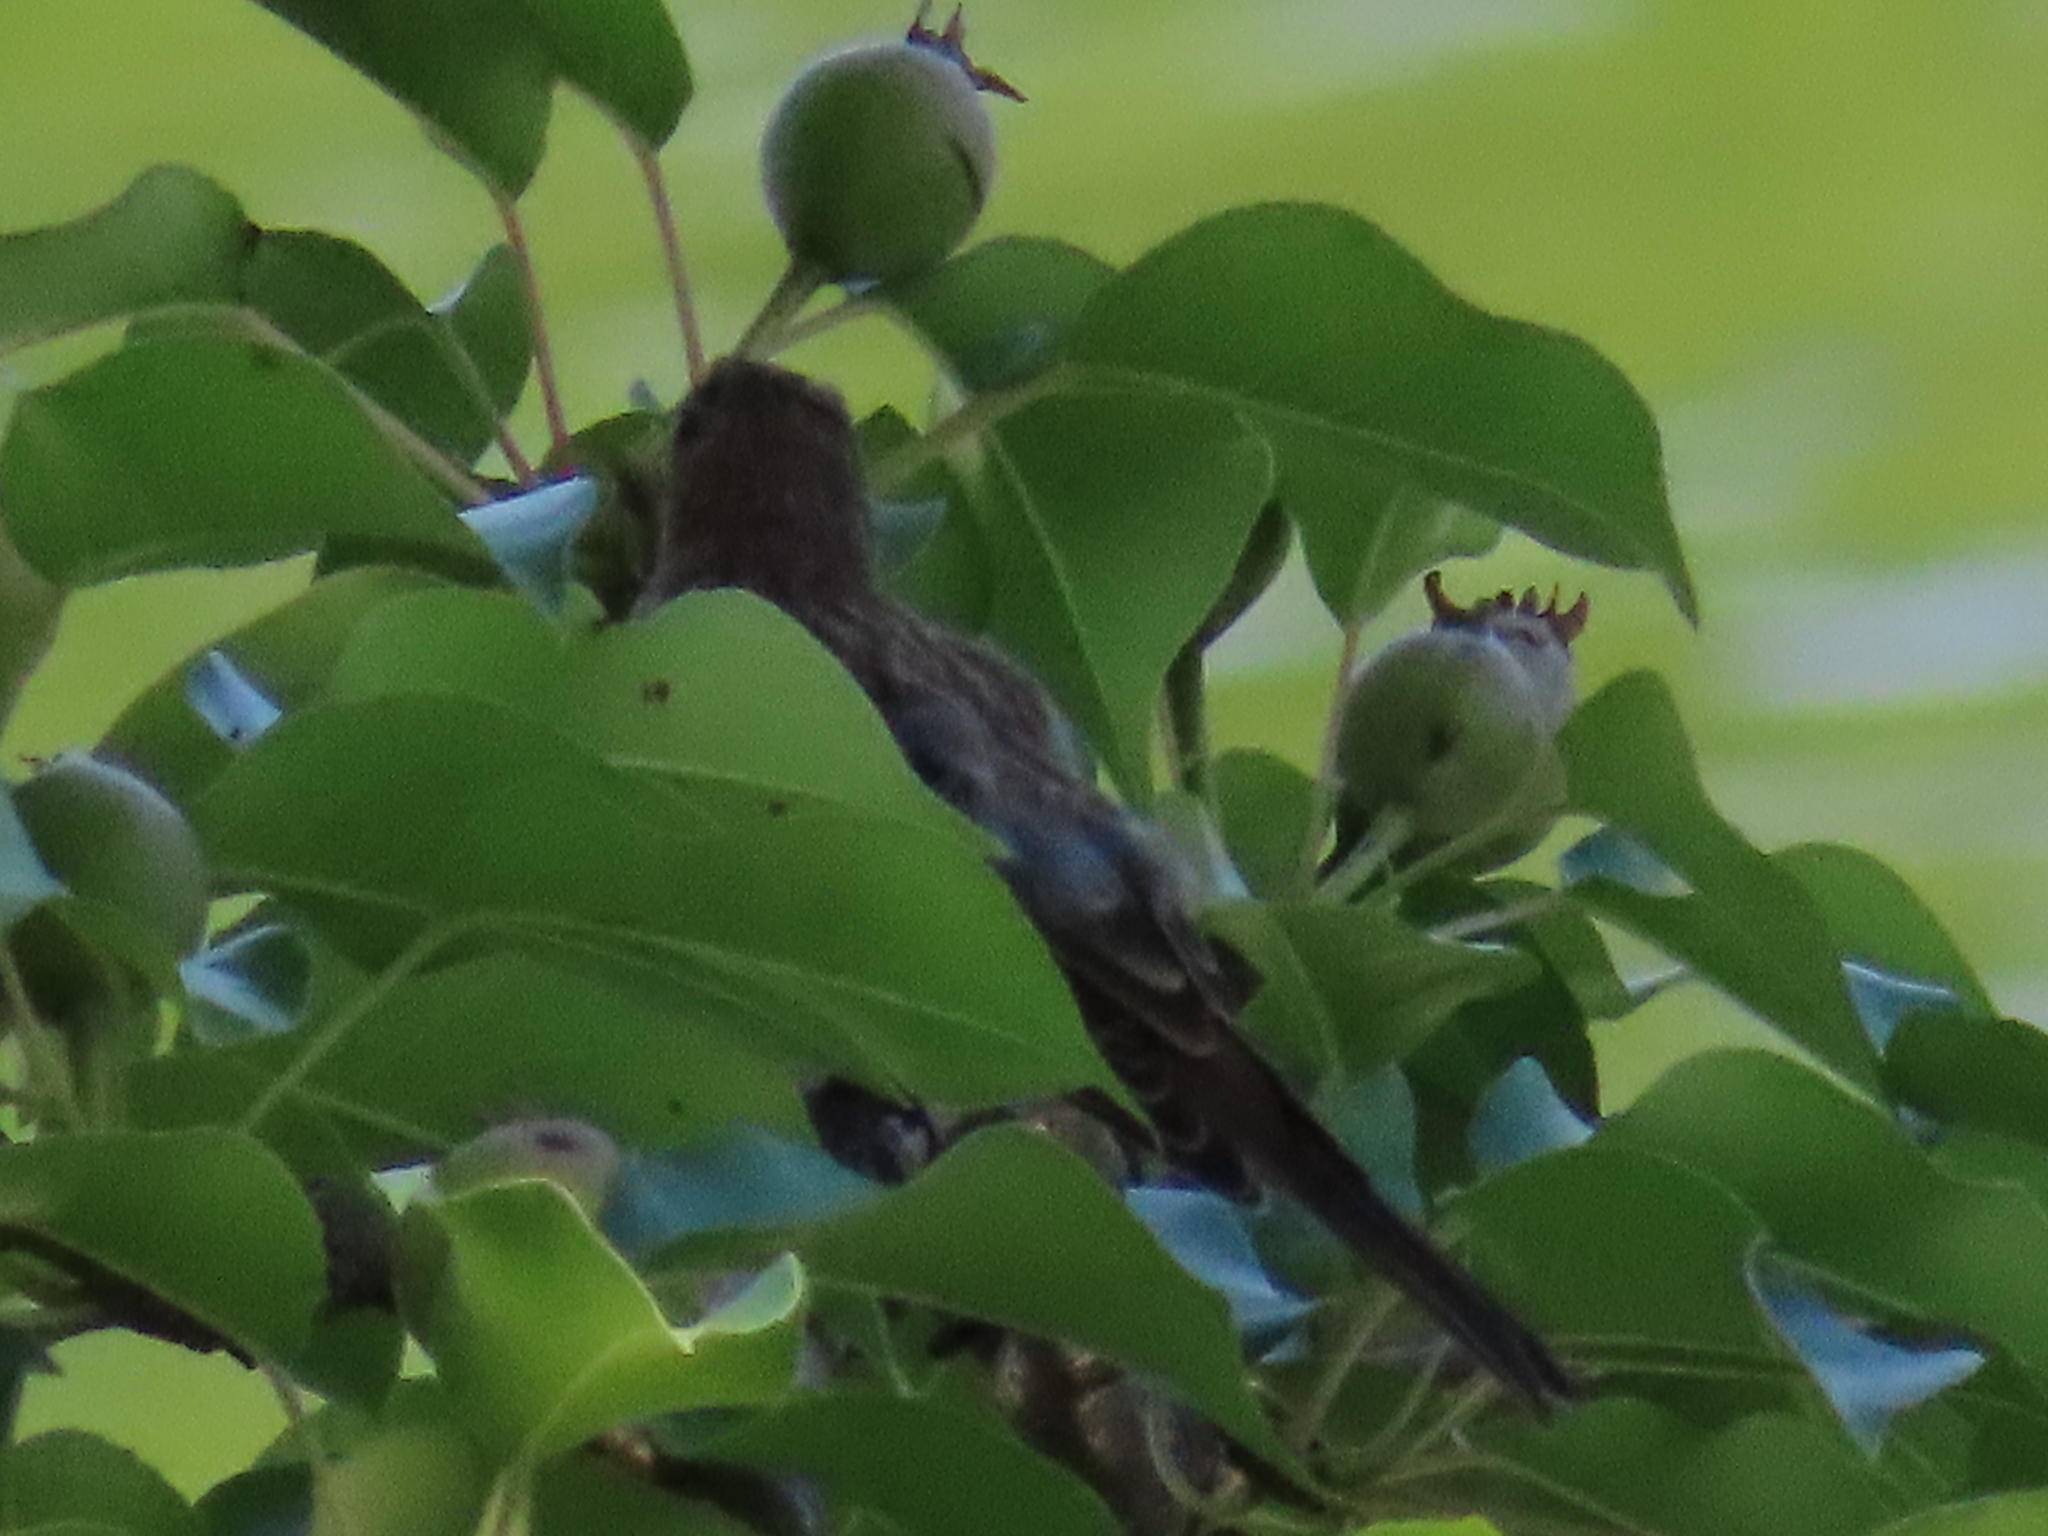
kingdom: Animalia
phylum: Chordata
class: Aves
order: Passeriformes
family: Fringillidae
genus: Haemorhous
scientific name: Haemorhous mexicanus
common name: House finch
